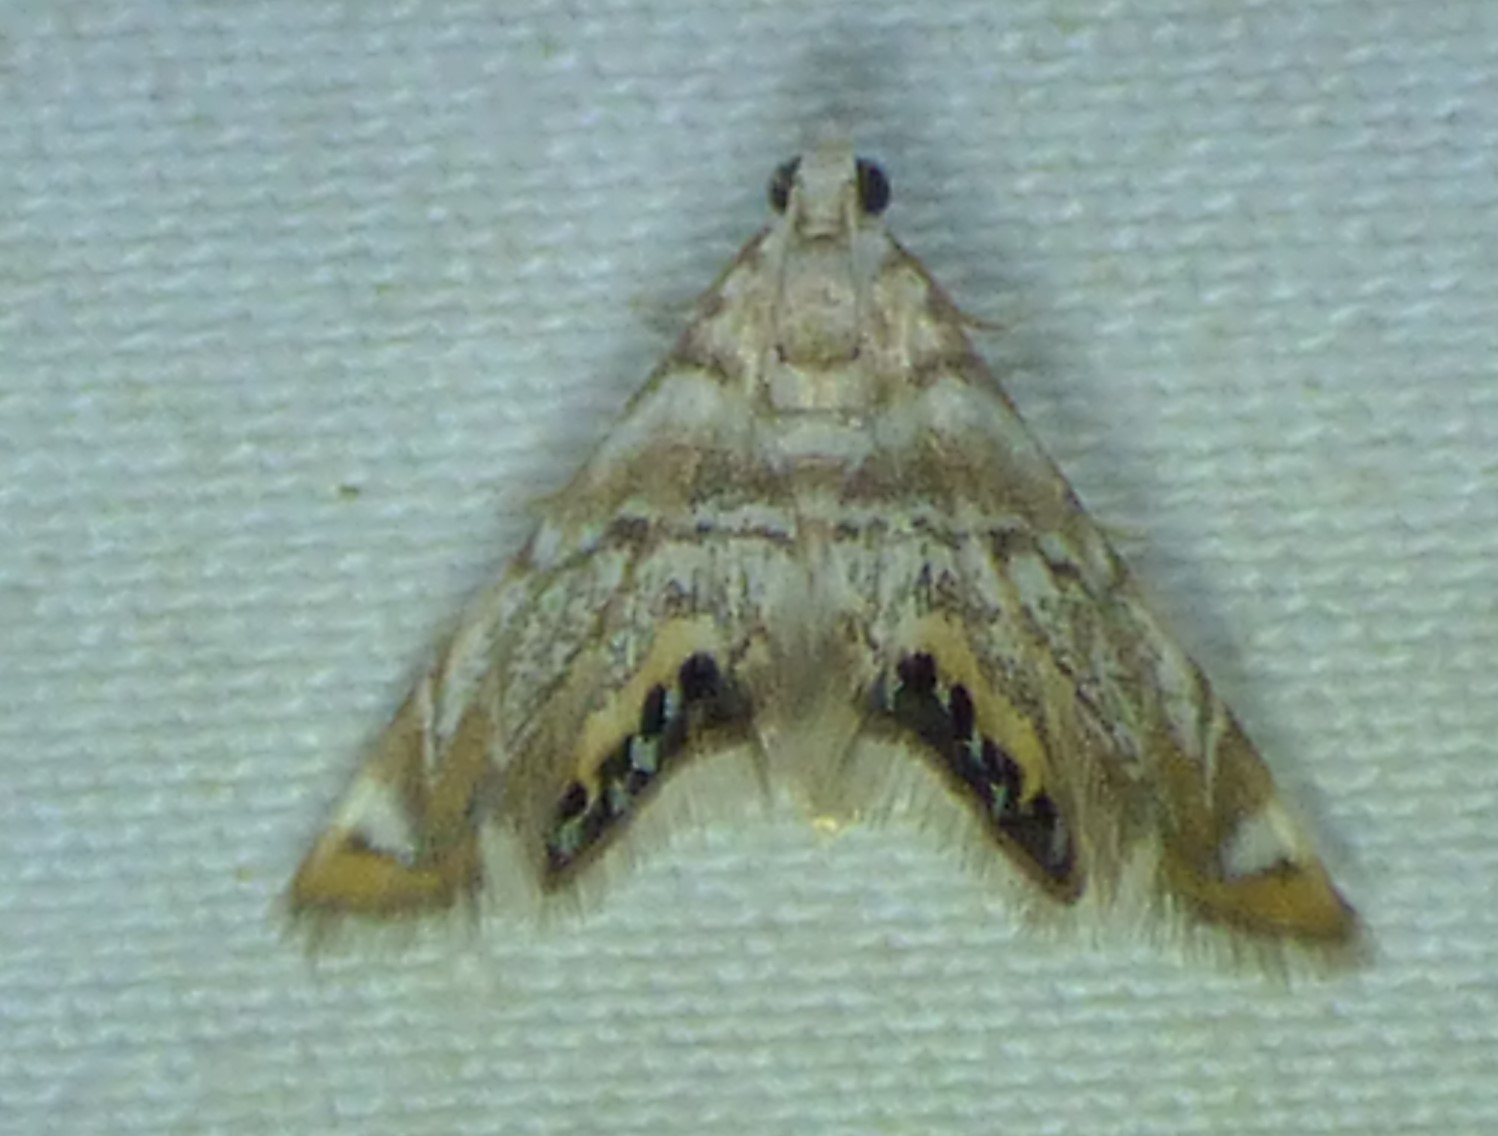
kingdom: Animalia
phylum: Arthropoda
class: Insecta
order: Lepidoptera
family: Crambidae
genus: Eoparargyractis
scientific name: Eoparargyractis irroratalis
